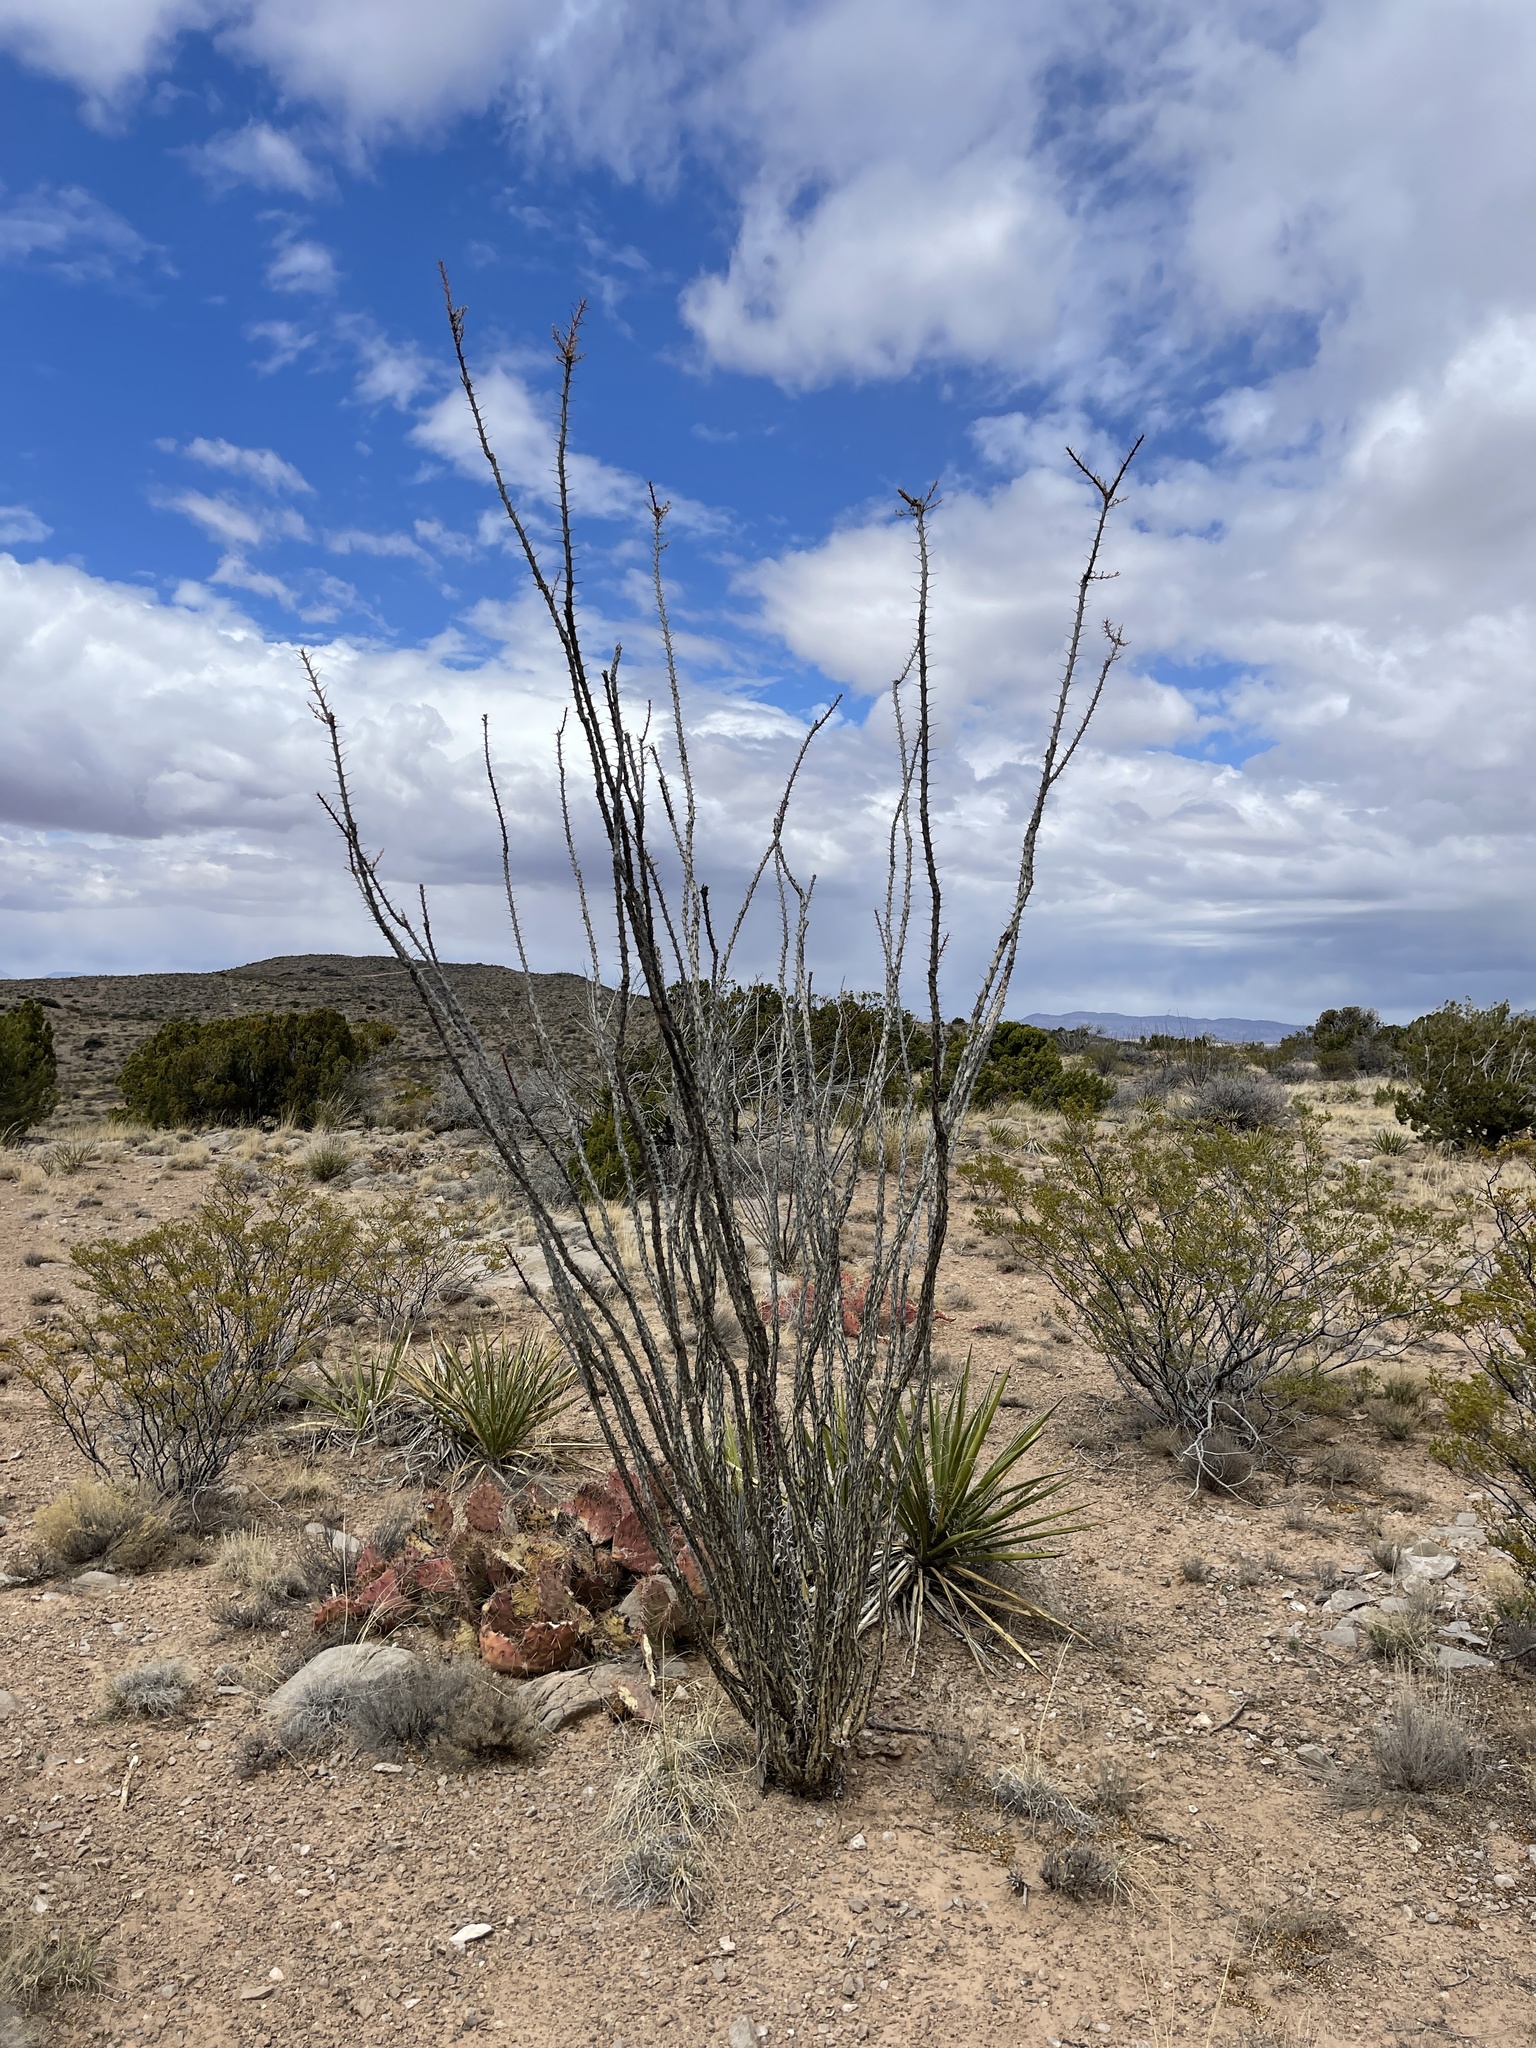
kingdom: Plantae
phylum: Tracheophyta
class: Magnoliopsida
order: Ericales
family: Fouquieriaceae
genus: Fouquieria
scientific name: Fouquieria splendens
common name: Vine-cactus
